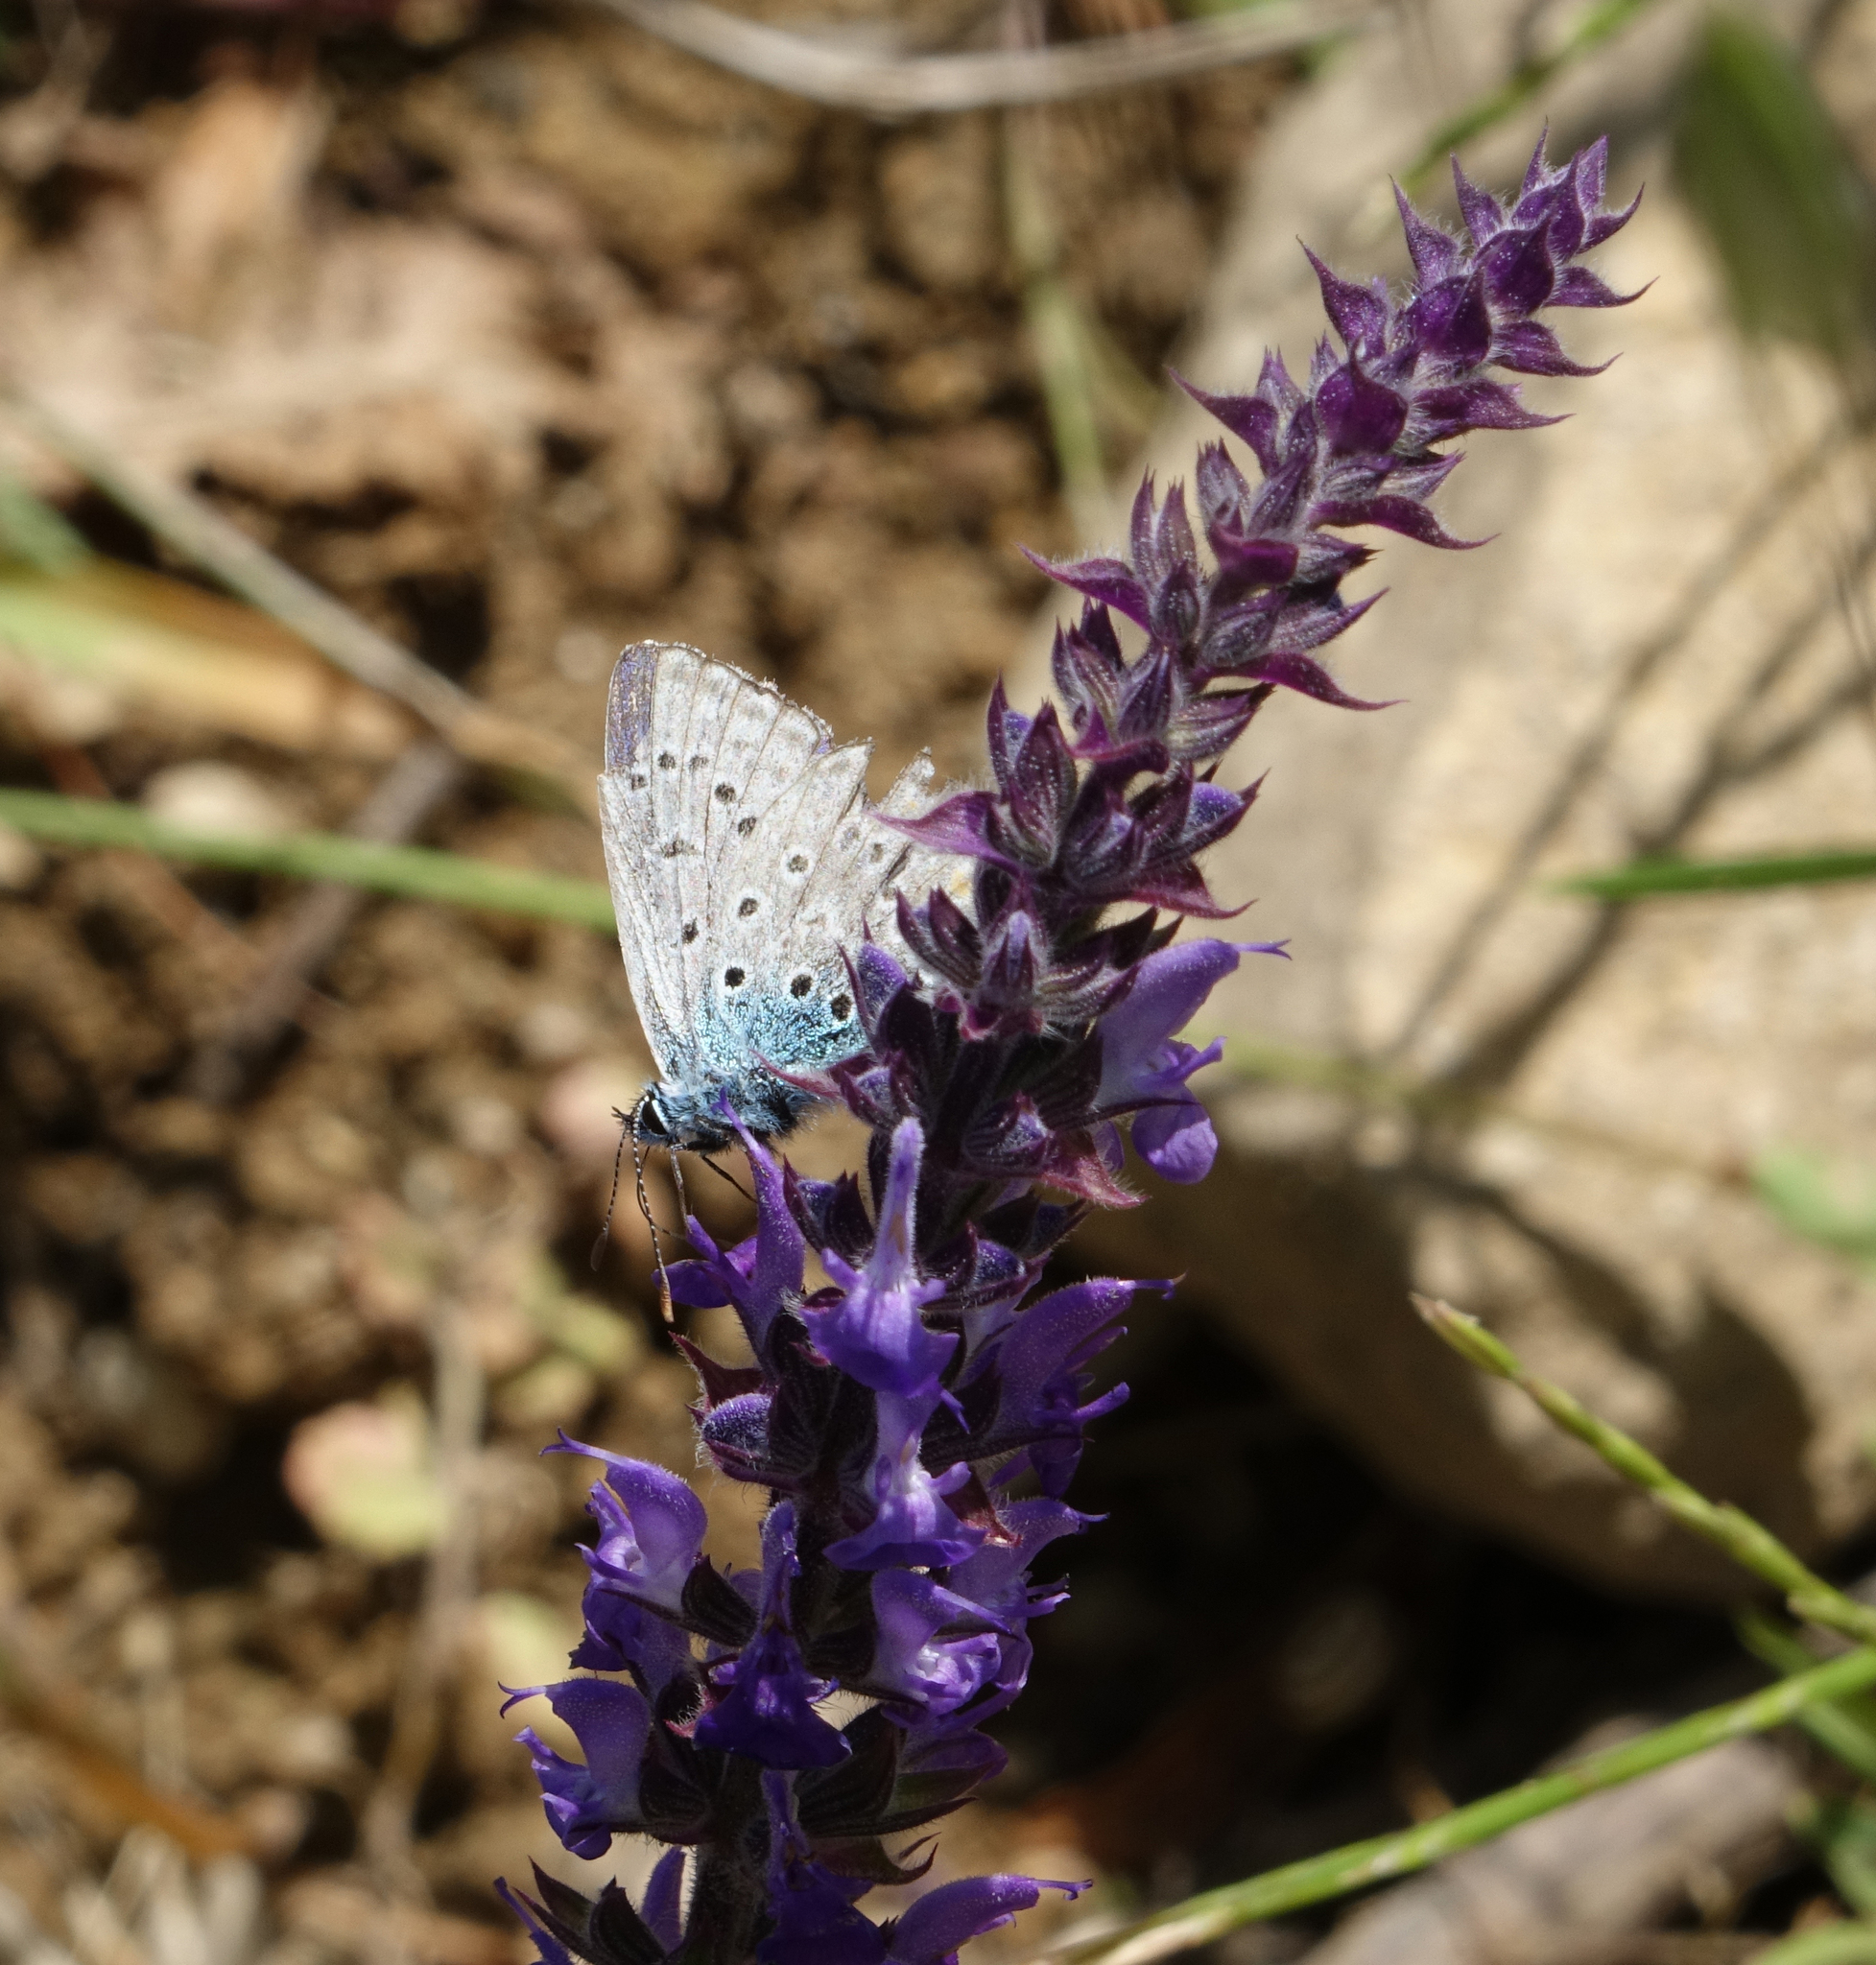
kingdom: Plantae
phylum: Tracheophyta
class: Magnoliopsida
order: Lamiales
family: Lamiaceae
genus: Salvia
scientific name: Salvia nemorosa
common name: Balkan clary
